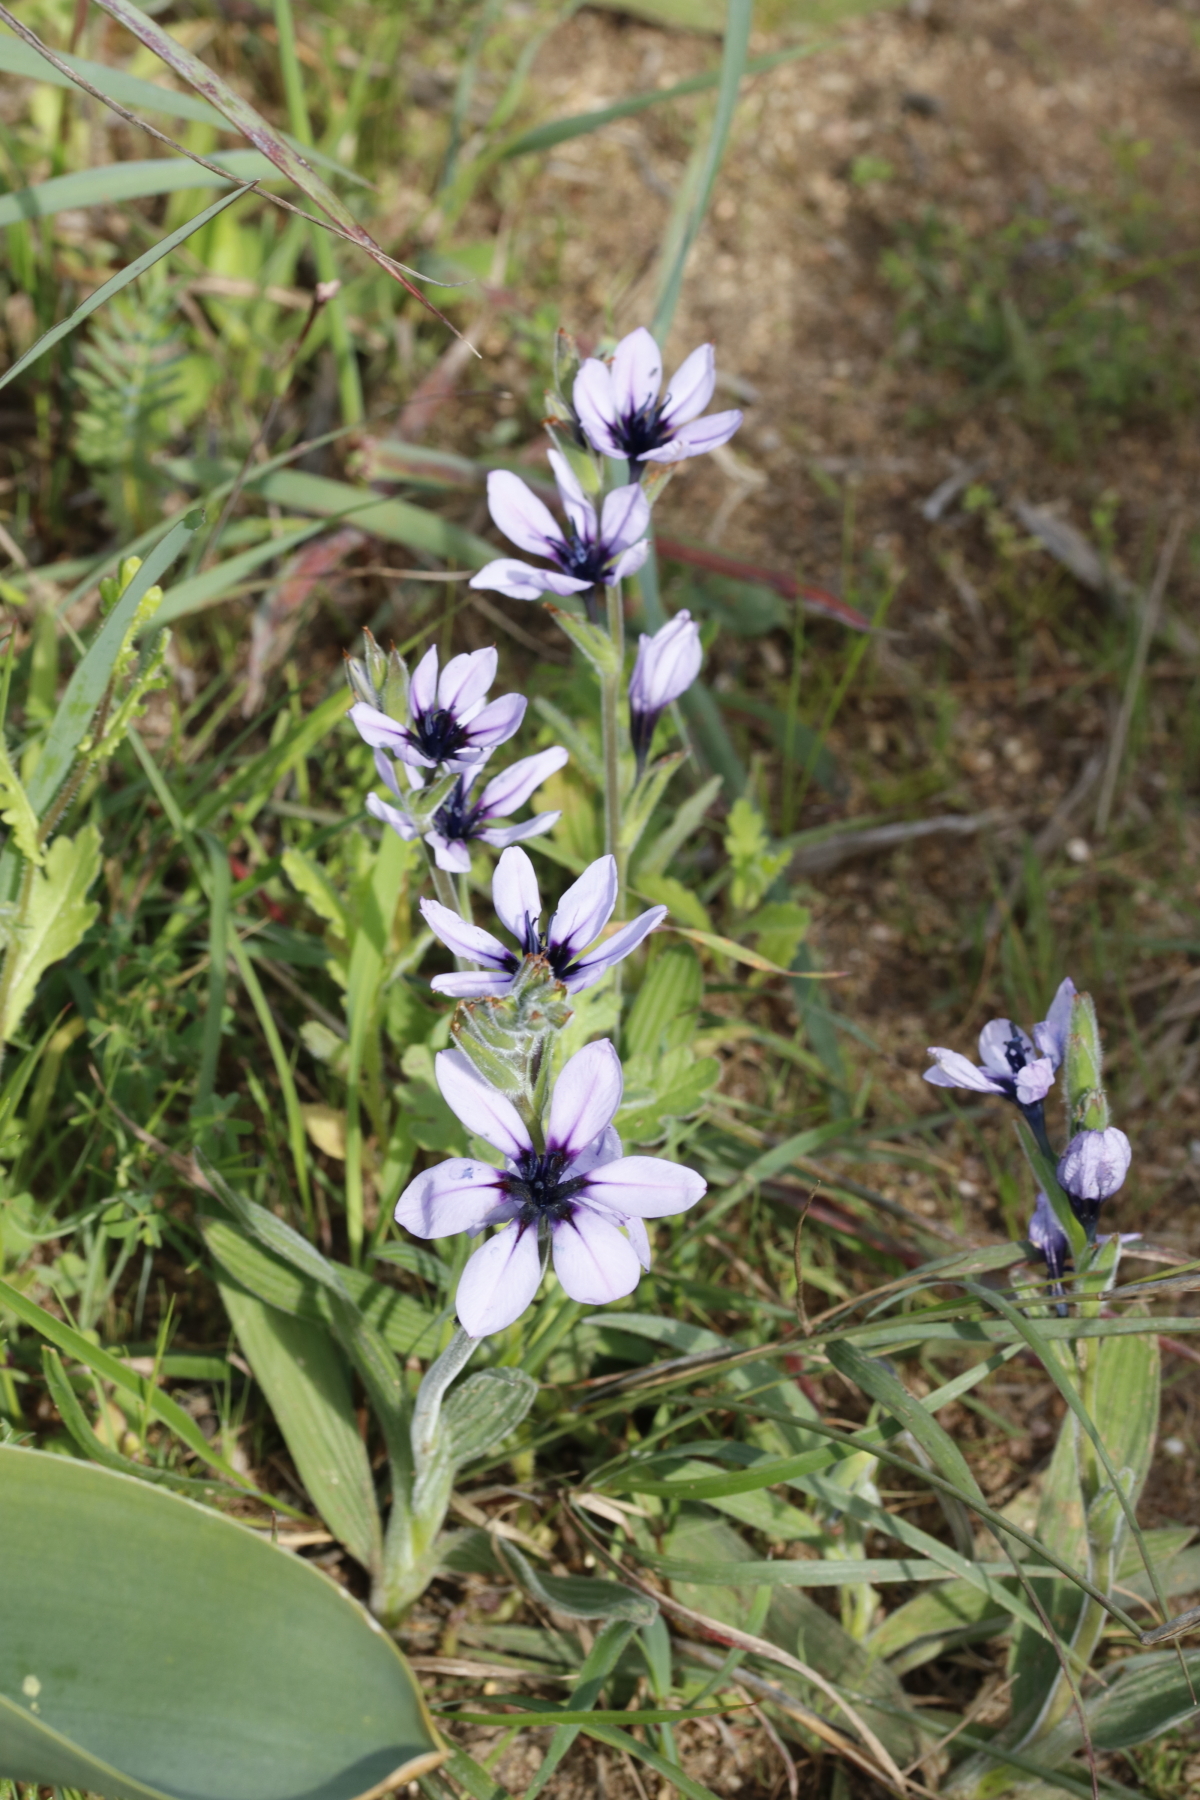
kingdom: Plantae
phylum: Tracheophyta
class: Liliopsida
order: Asparagales
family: Iridaceae
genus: Babiana
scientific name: Babiana melanops
